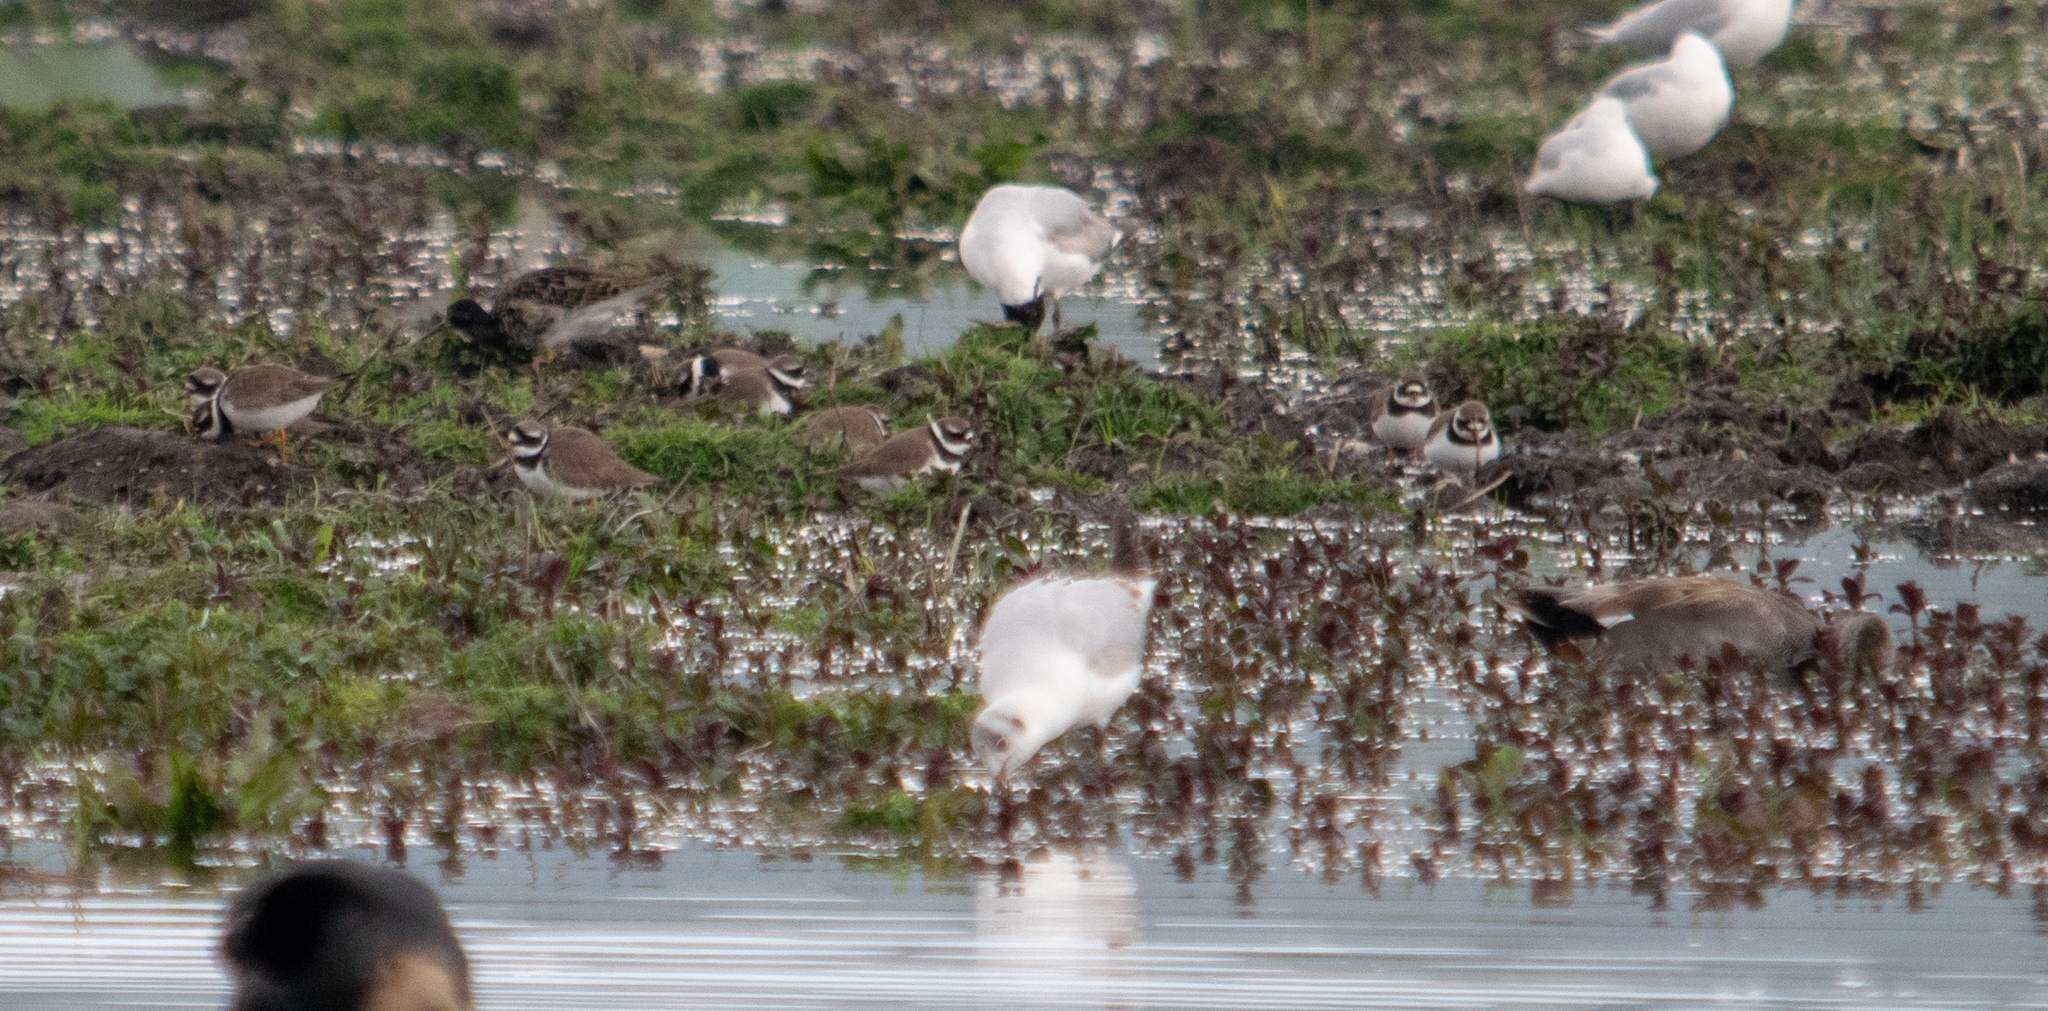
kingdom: Animalia
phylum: Chordata
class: Aves
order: Anseriformes
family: Anatidae
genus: Mareca
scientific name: Mareca strepera
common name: Gadwall
